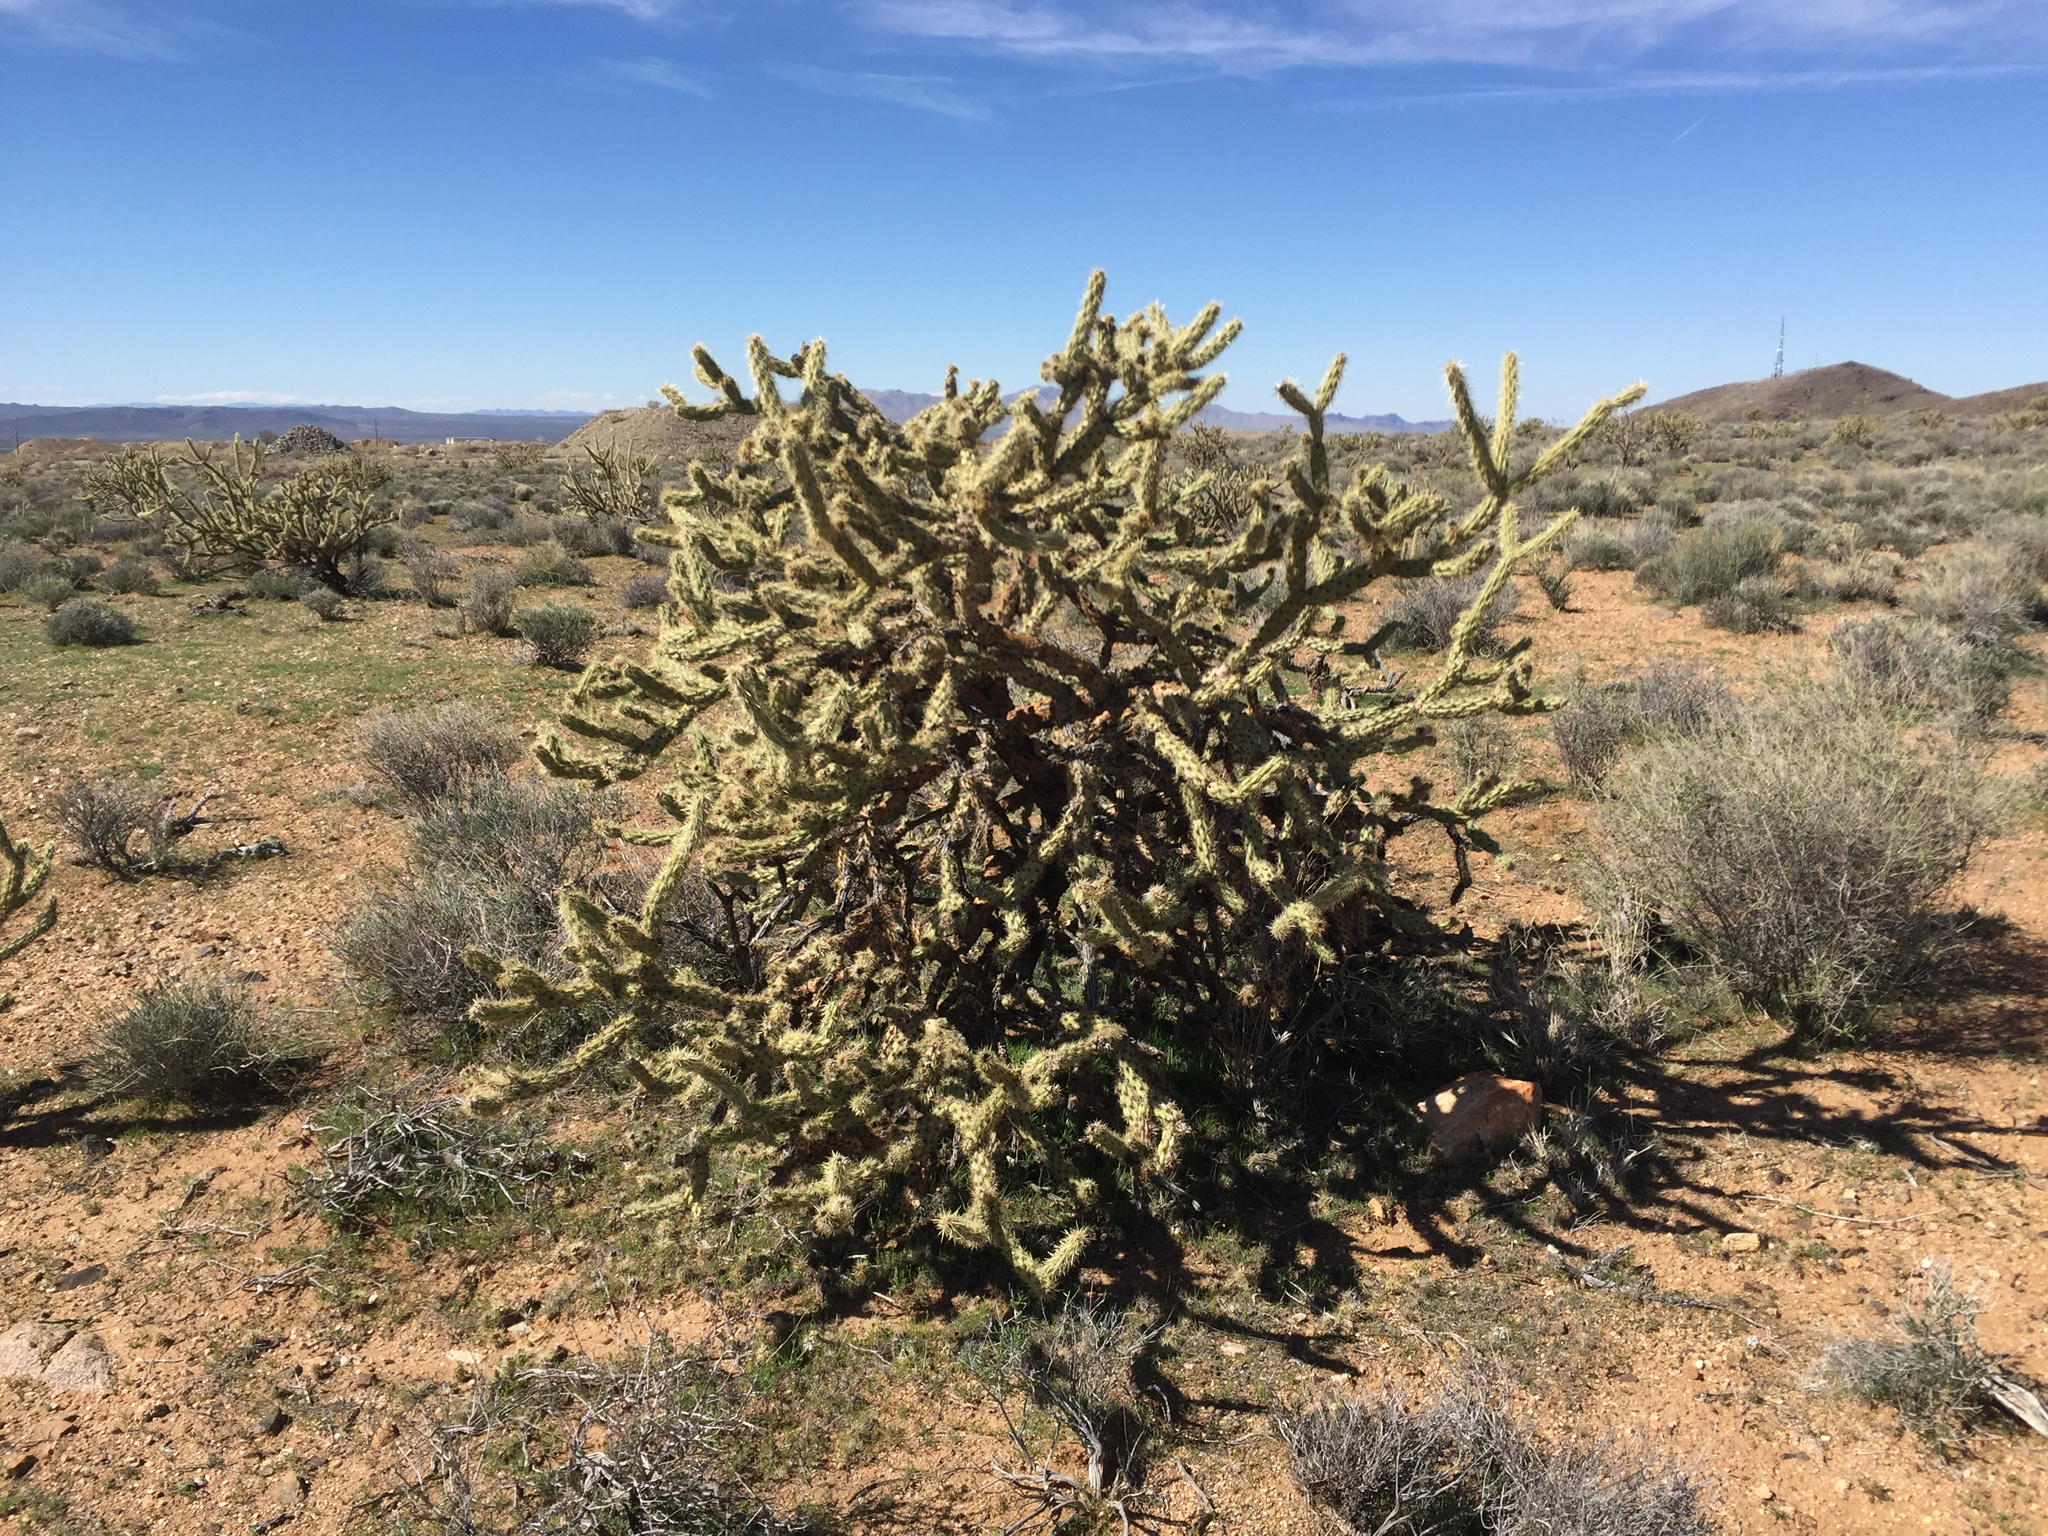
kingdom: Plantae
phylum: Tracheophyta
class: Magnoliopsida
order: Caryophyllales
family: Cactaceae
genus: Cylindropuntia
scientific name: Cylindropuntia acanthocarpa
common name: Buckhorn cholla
